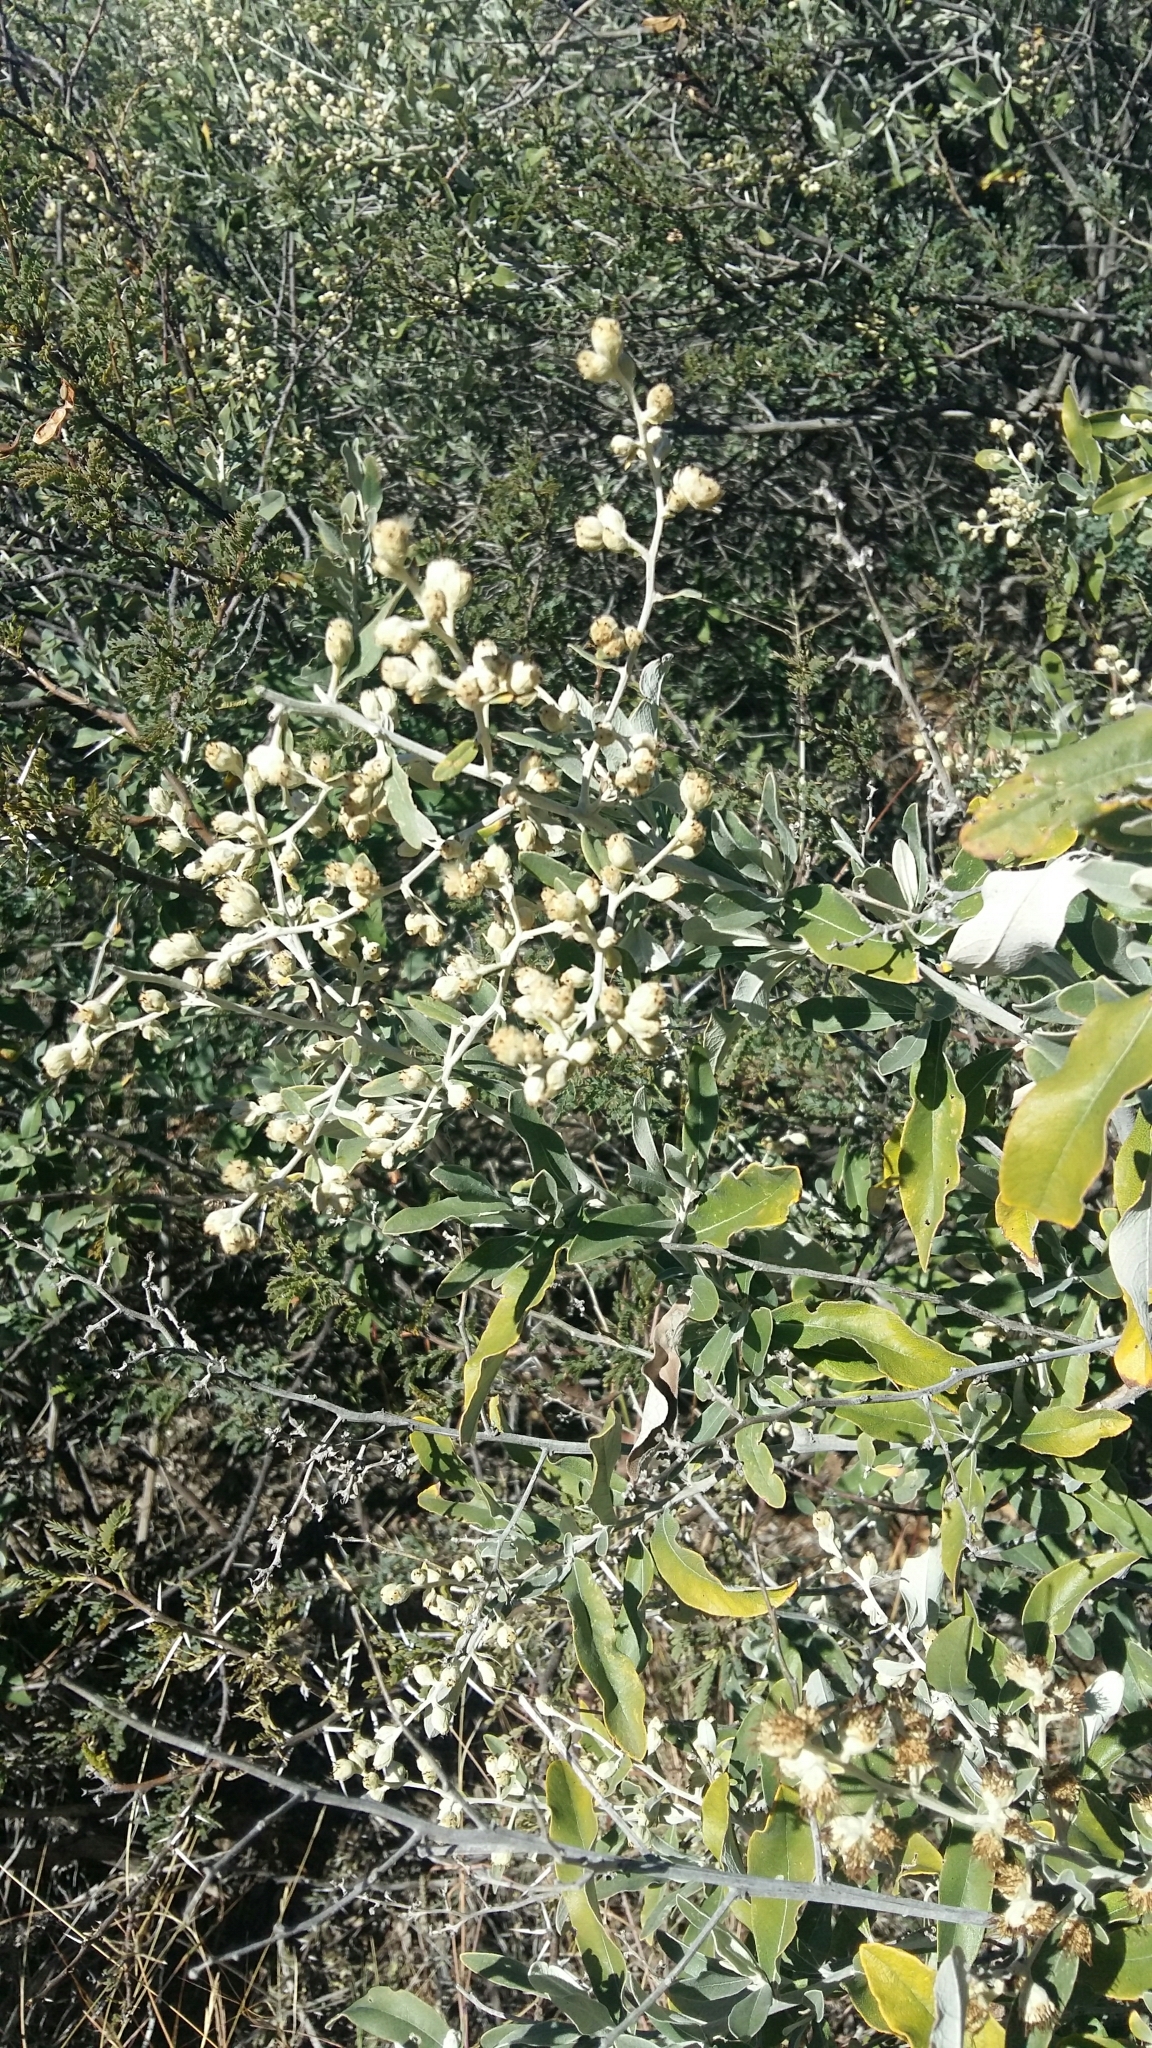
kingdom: Plantae
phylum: Tracheophyta
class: Magnoliopsida
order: Asterales
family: Asteraceae
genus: Tarchonanthus
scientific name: Tarchonanthus camphoratus
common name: Camphorwood
